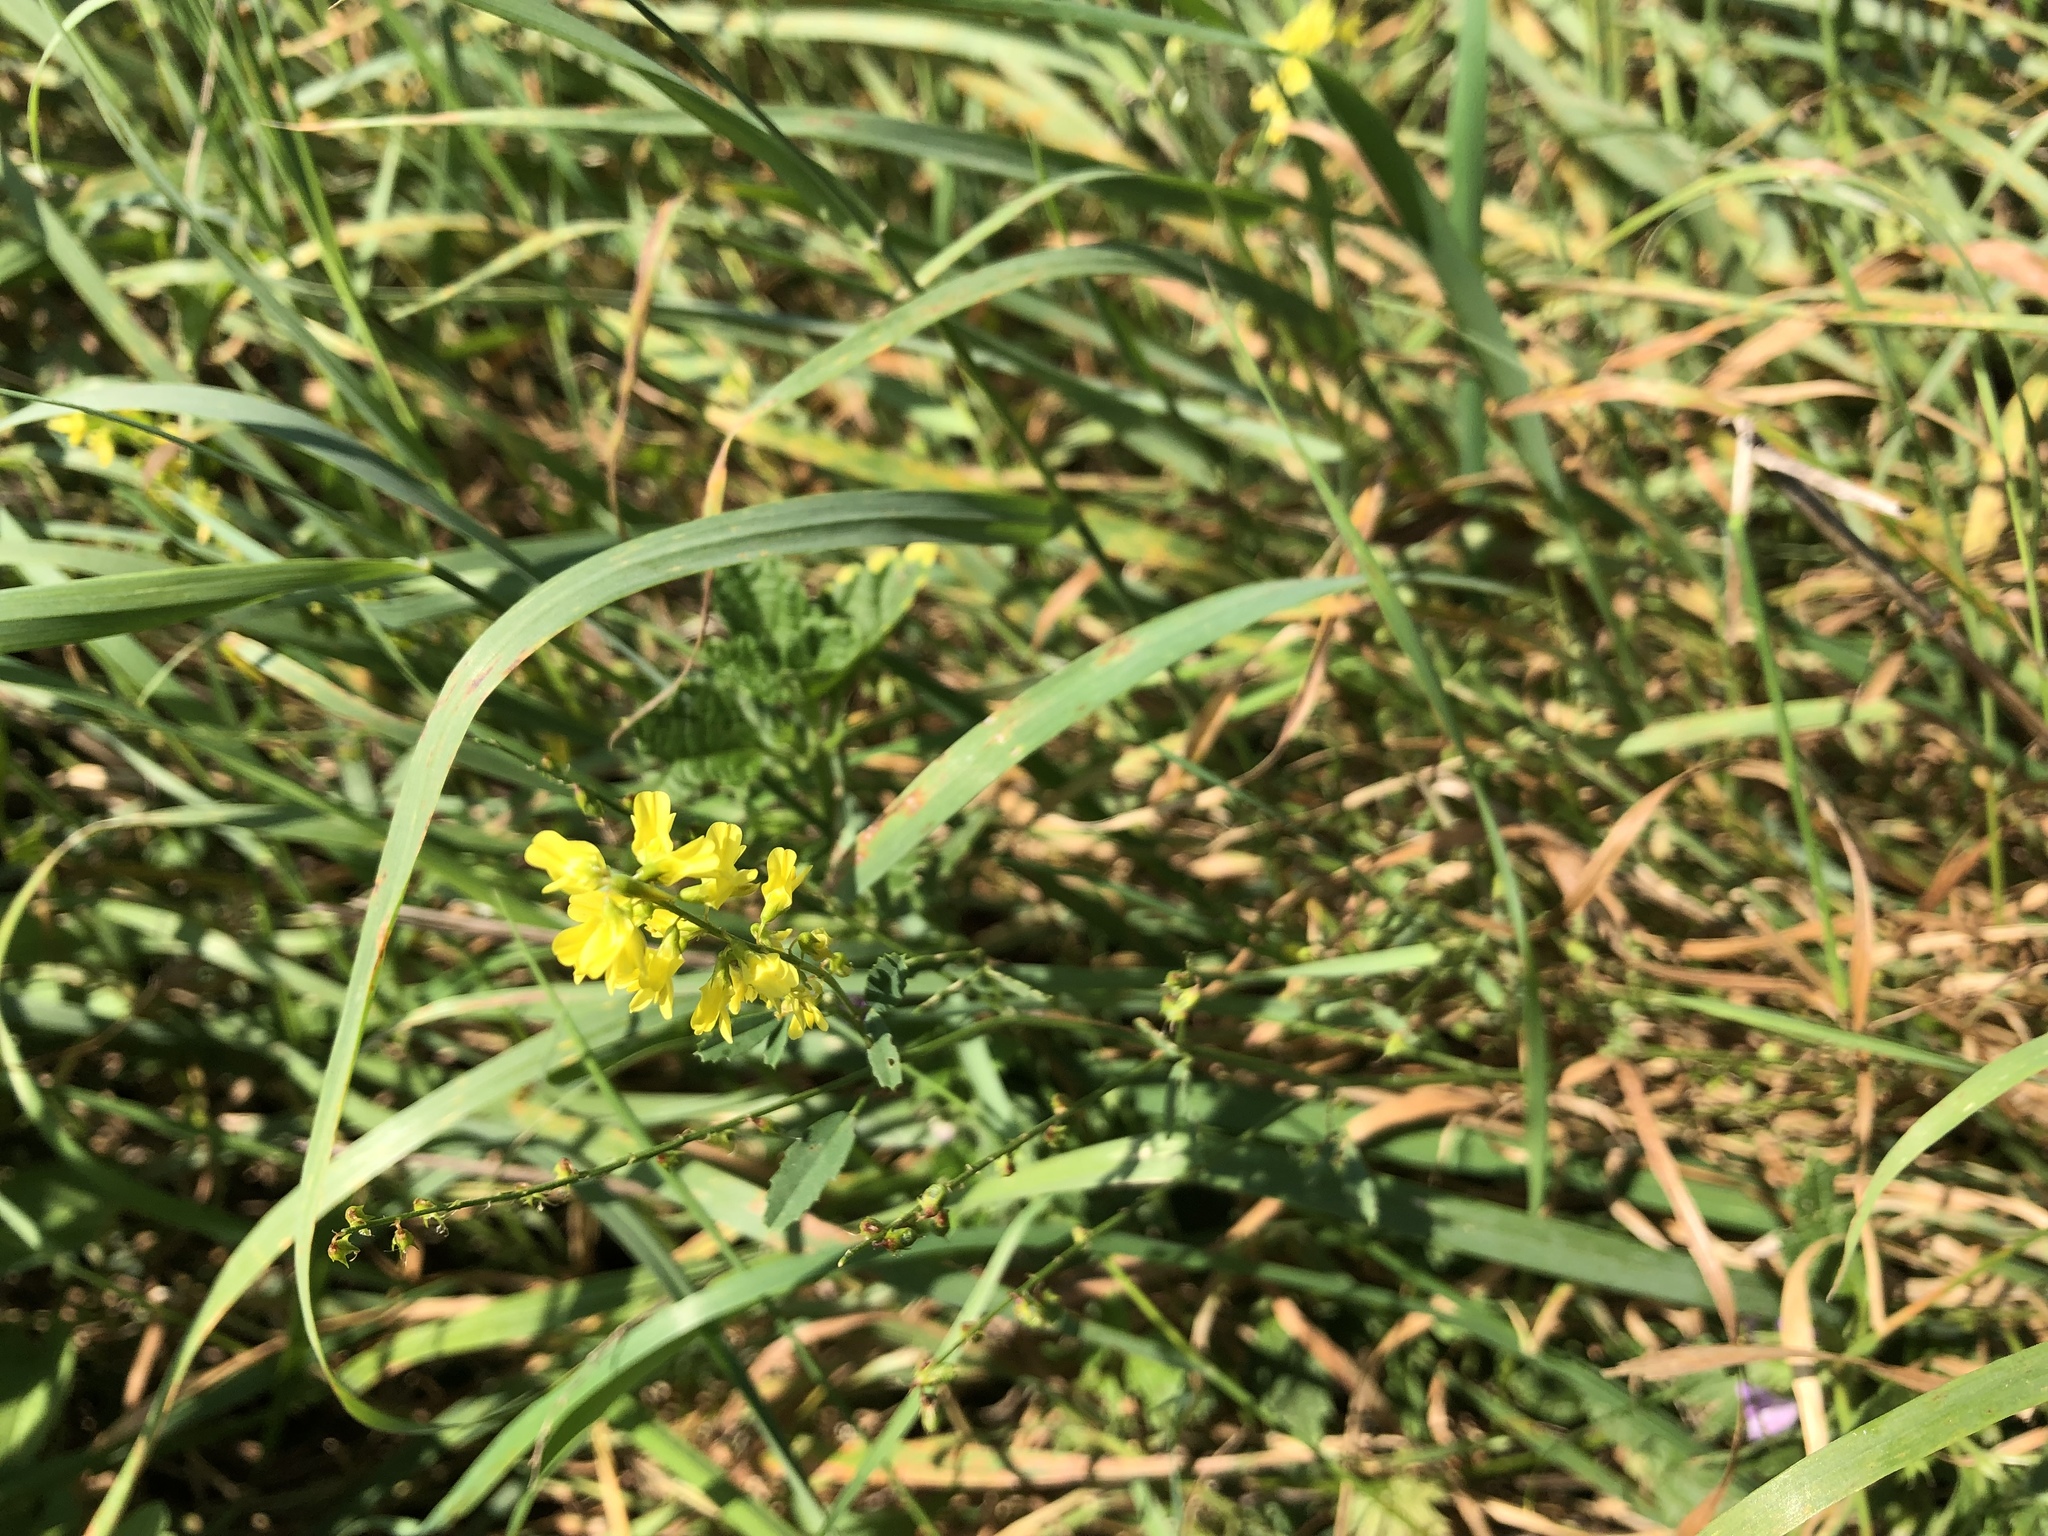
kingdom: Plantae
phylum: Tracheophyta
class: Magnoliopsida
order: Fabales
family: Fabaceae
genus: Melilotus
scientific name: Melilotus officinalis
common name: Sweetclover
